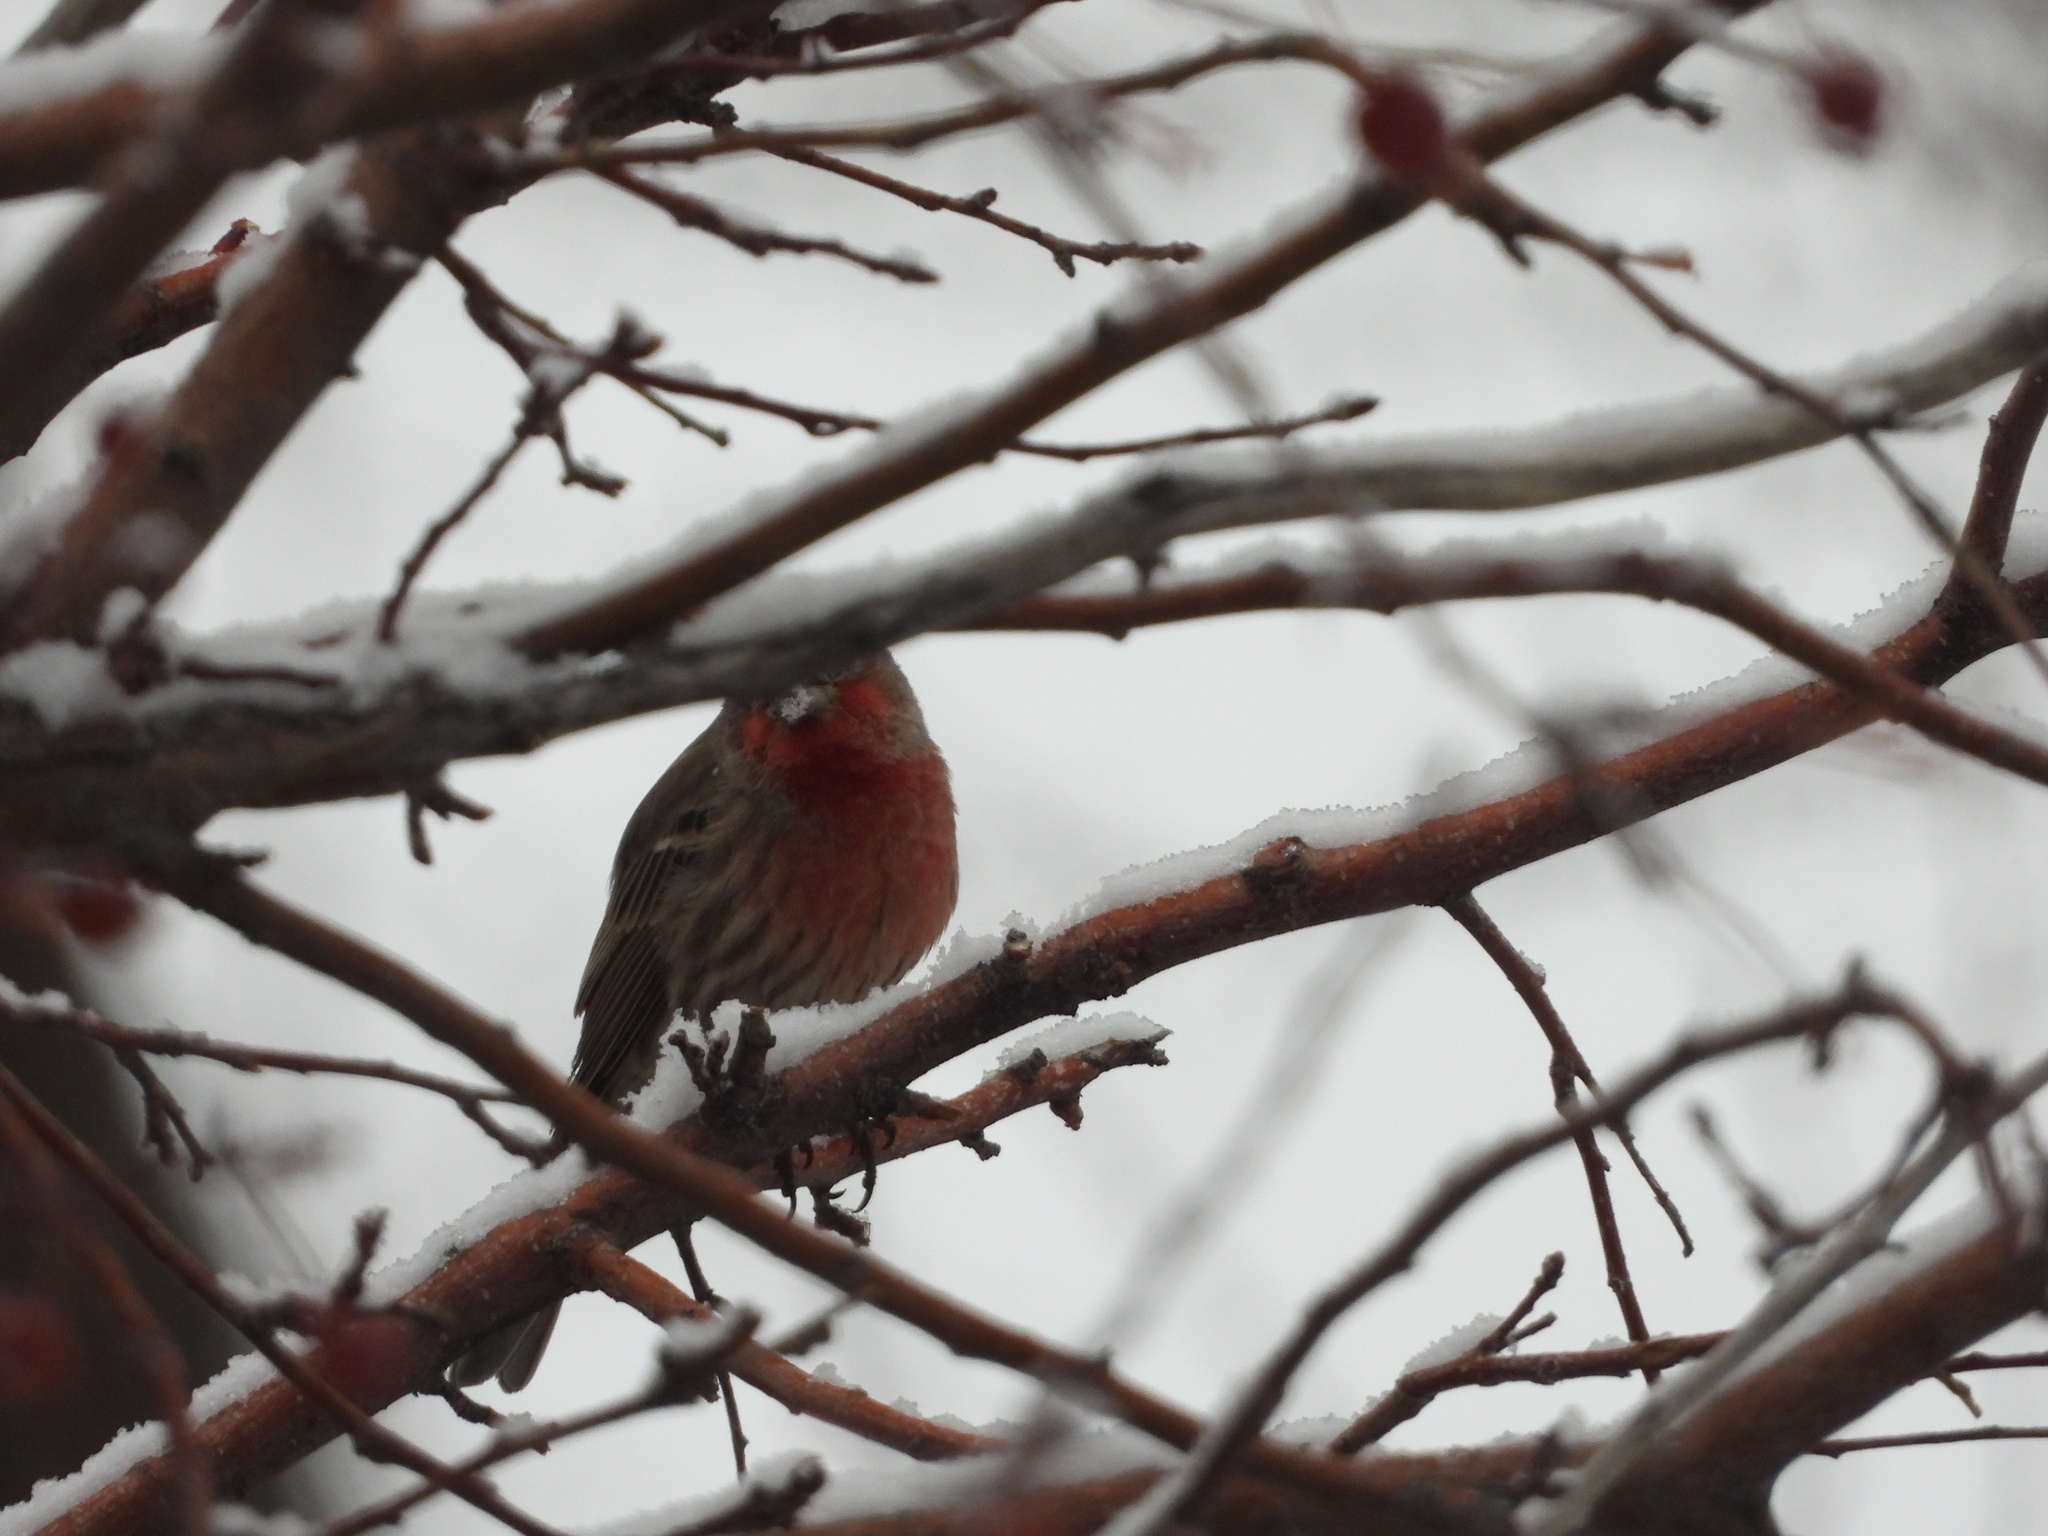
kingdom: Animalia
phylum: Chordata
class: Aves
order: Passeriformes
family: Fringillidae
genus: Haemorhous
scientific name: Haemorhous mexicanus
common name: House finch
